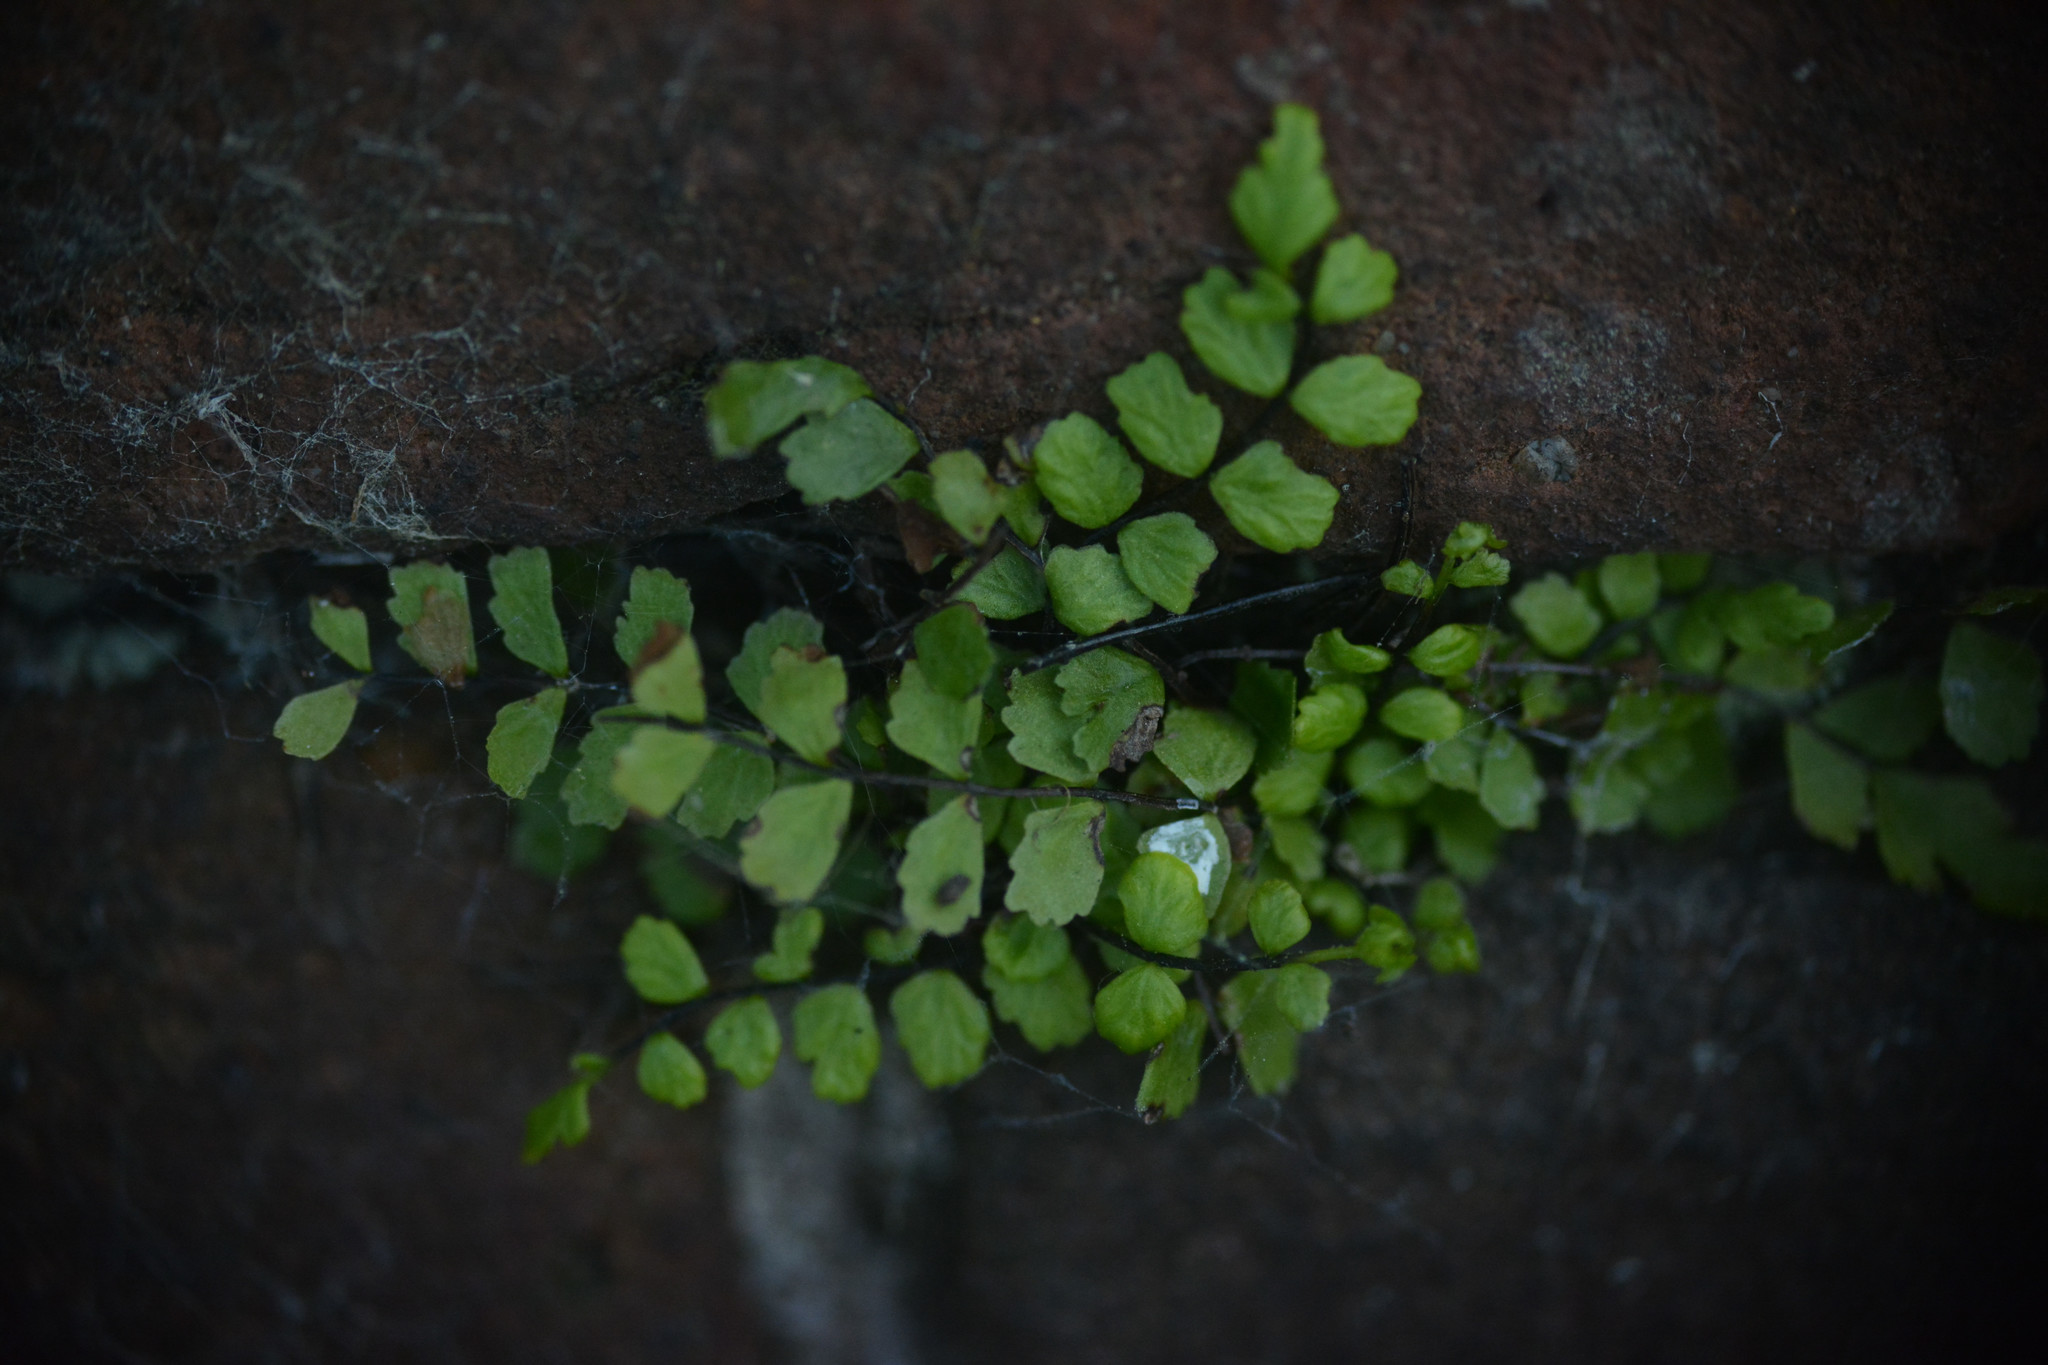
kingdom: Plantae
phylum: Tracheophyta
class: Polypodiopsida
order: Polypodiales
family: Aspleniaceae
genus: Asplenium
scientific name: Asplenium trichomanes
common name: Maidenhair spleenwort
